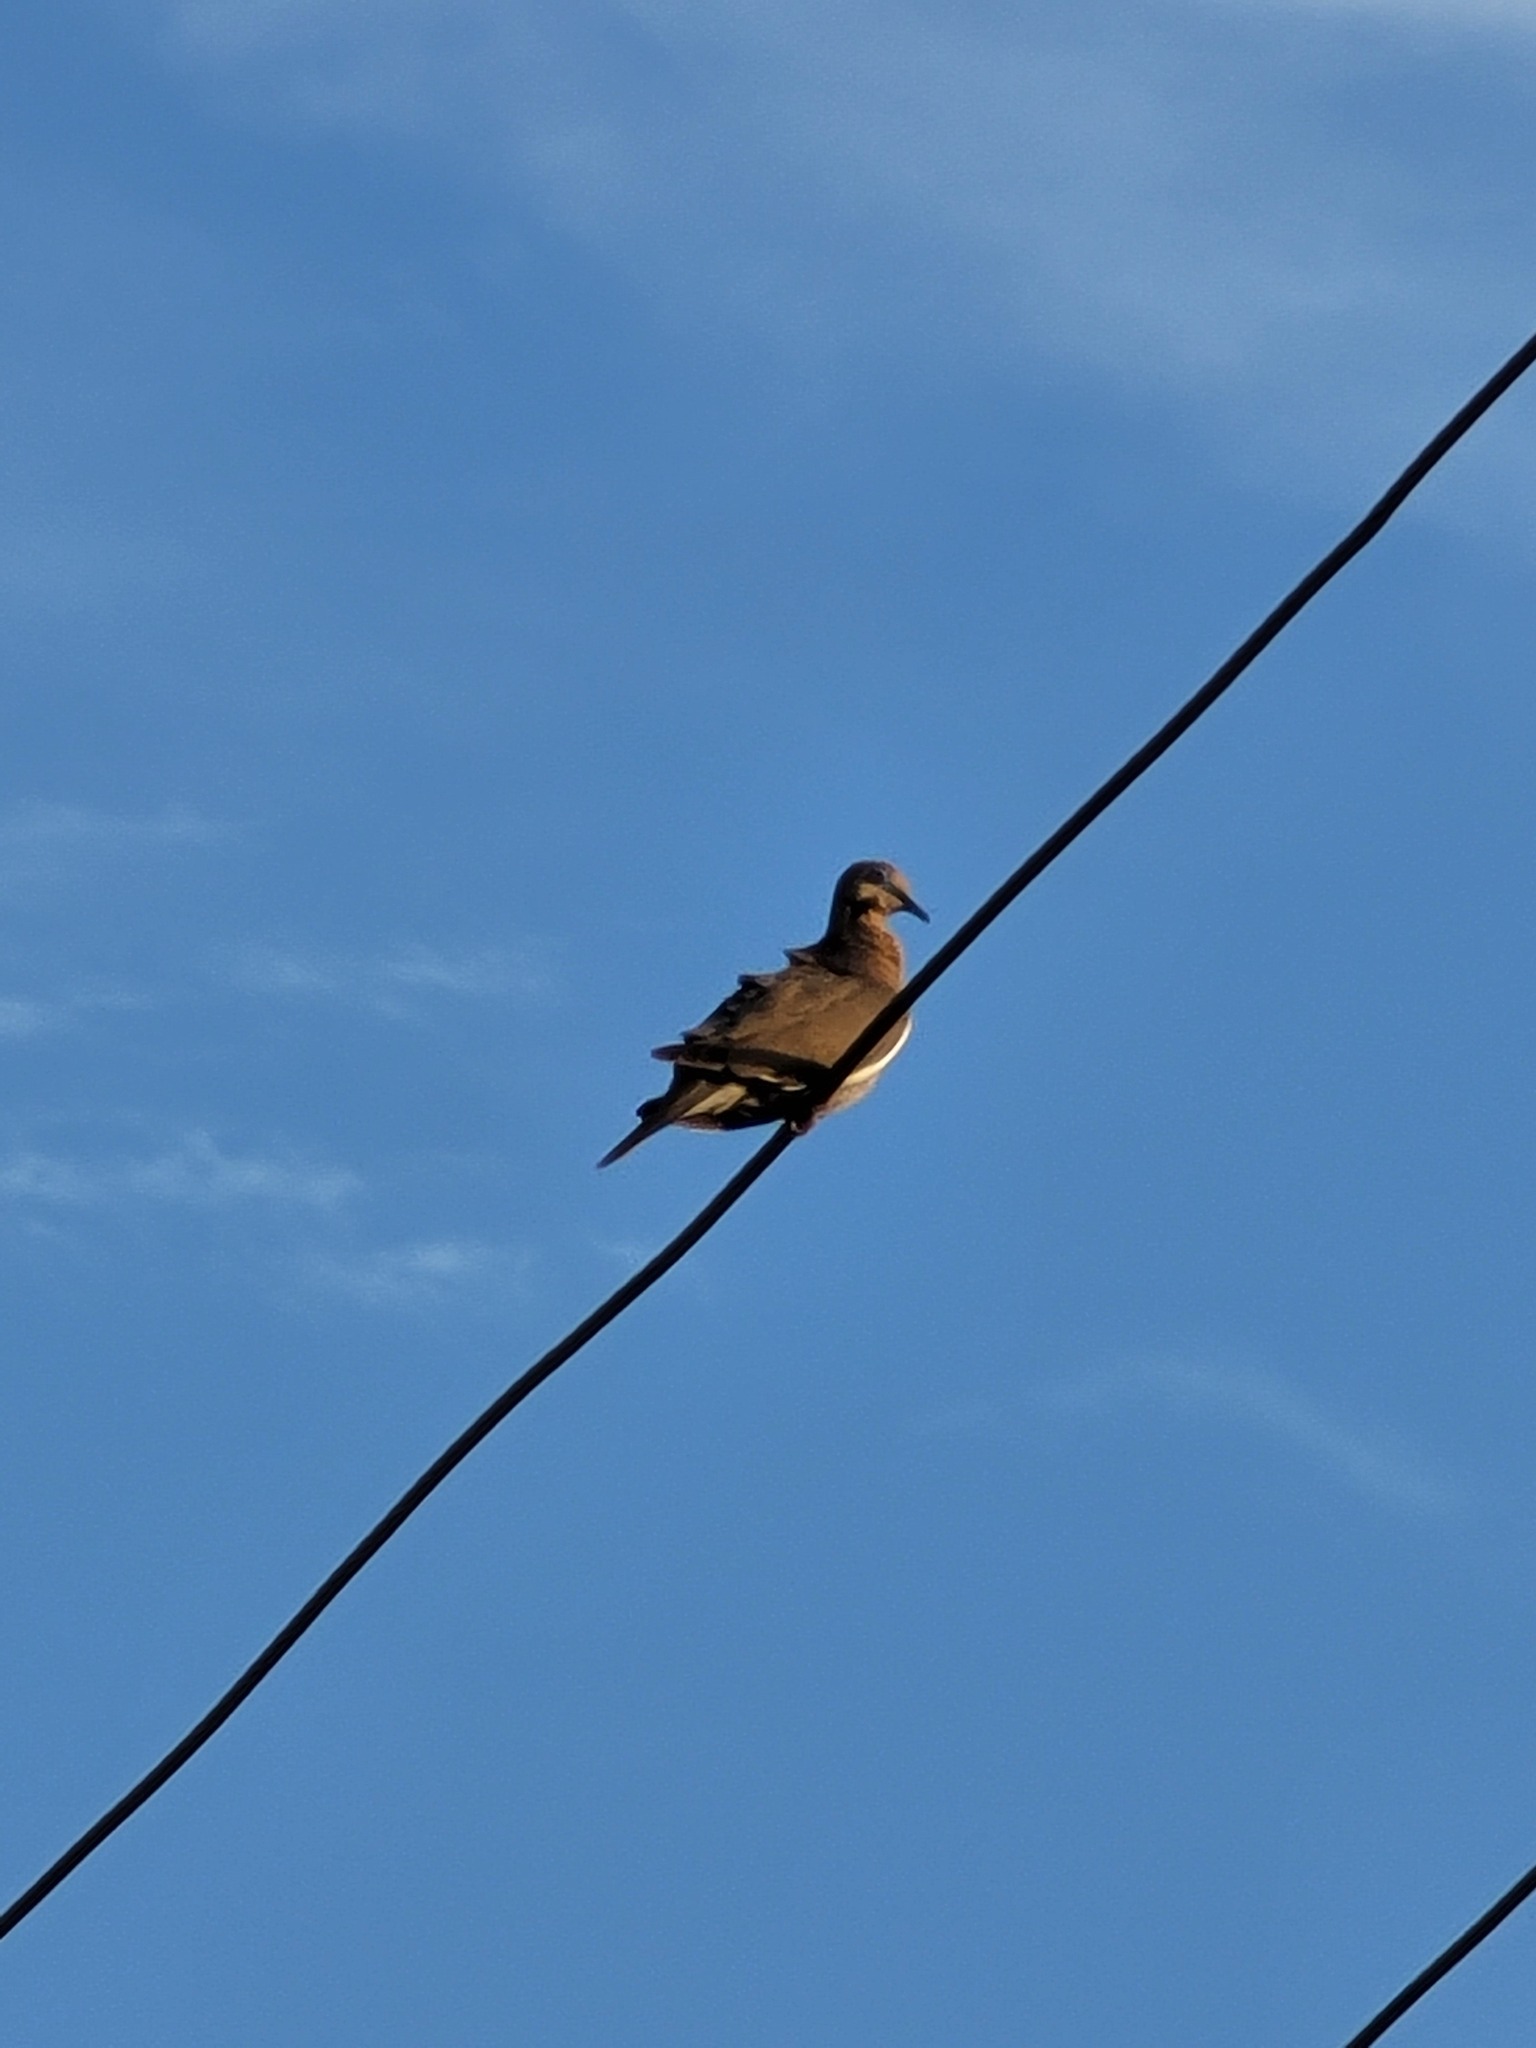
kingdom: Animalia
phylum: Chordata
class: Aves
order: Columbiformes
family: Columbidae
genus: Zenaida
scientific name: Zenaida asiatica
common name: White-winged dove
